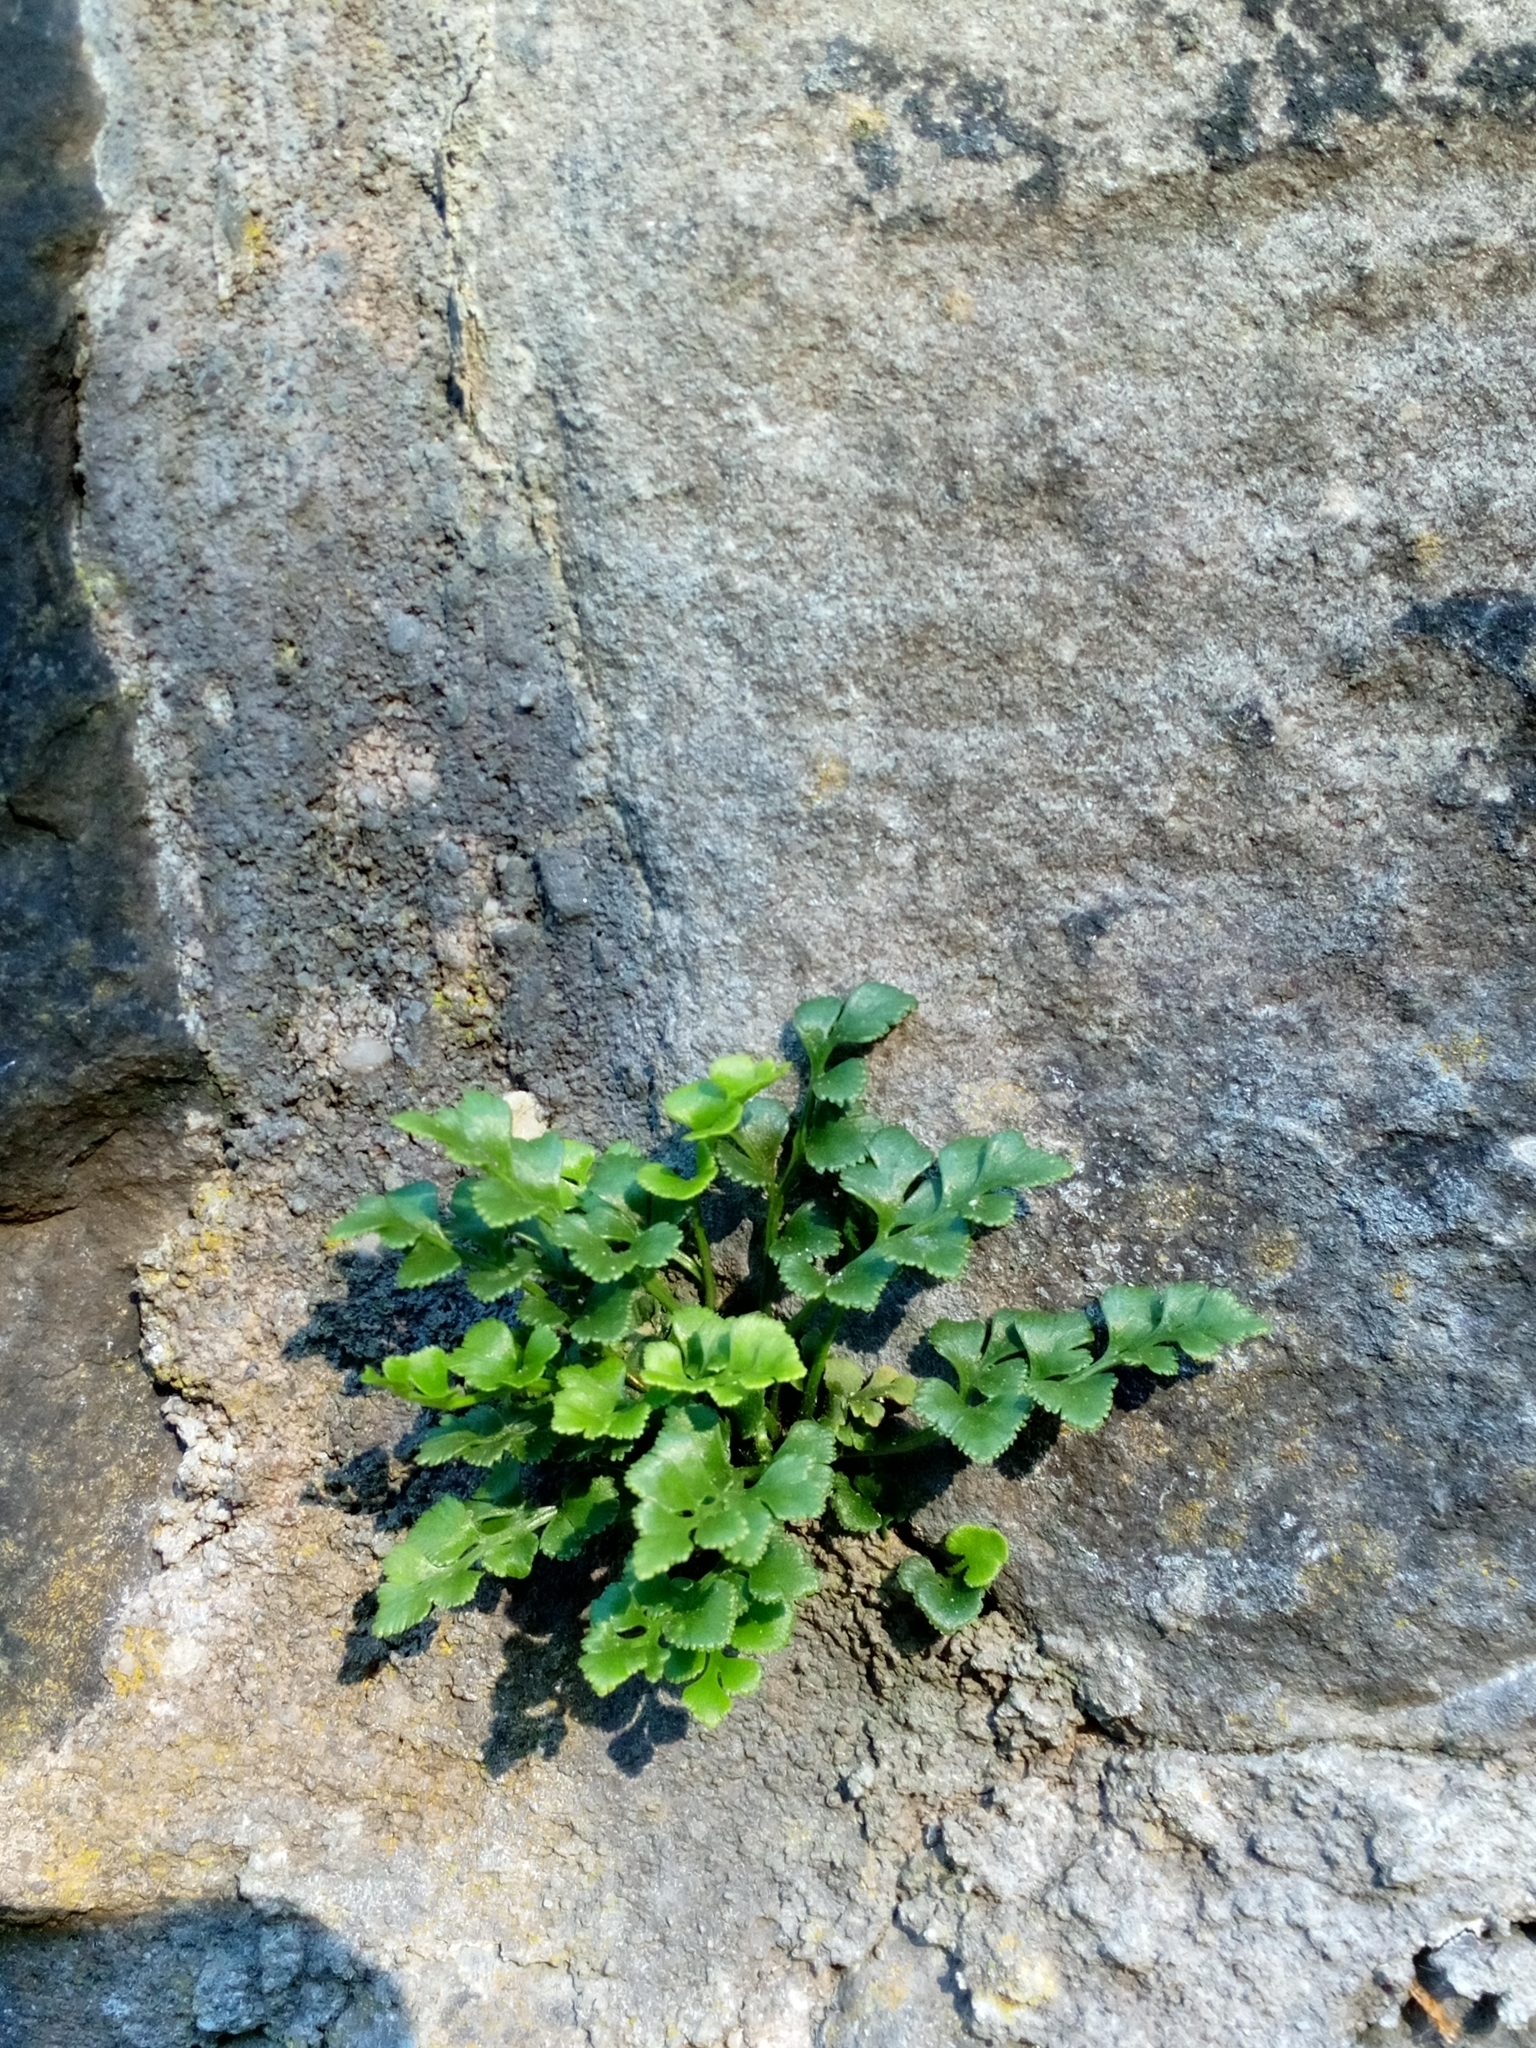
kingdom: Plantae
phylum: Tracheophyta
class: Polypodiopsida
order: Polypodiales
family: Aspleniaceae
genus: Asplenium
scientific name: Asplenium ruta-muraria
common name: Wall-rue
